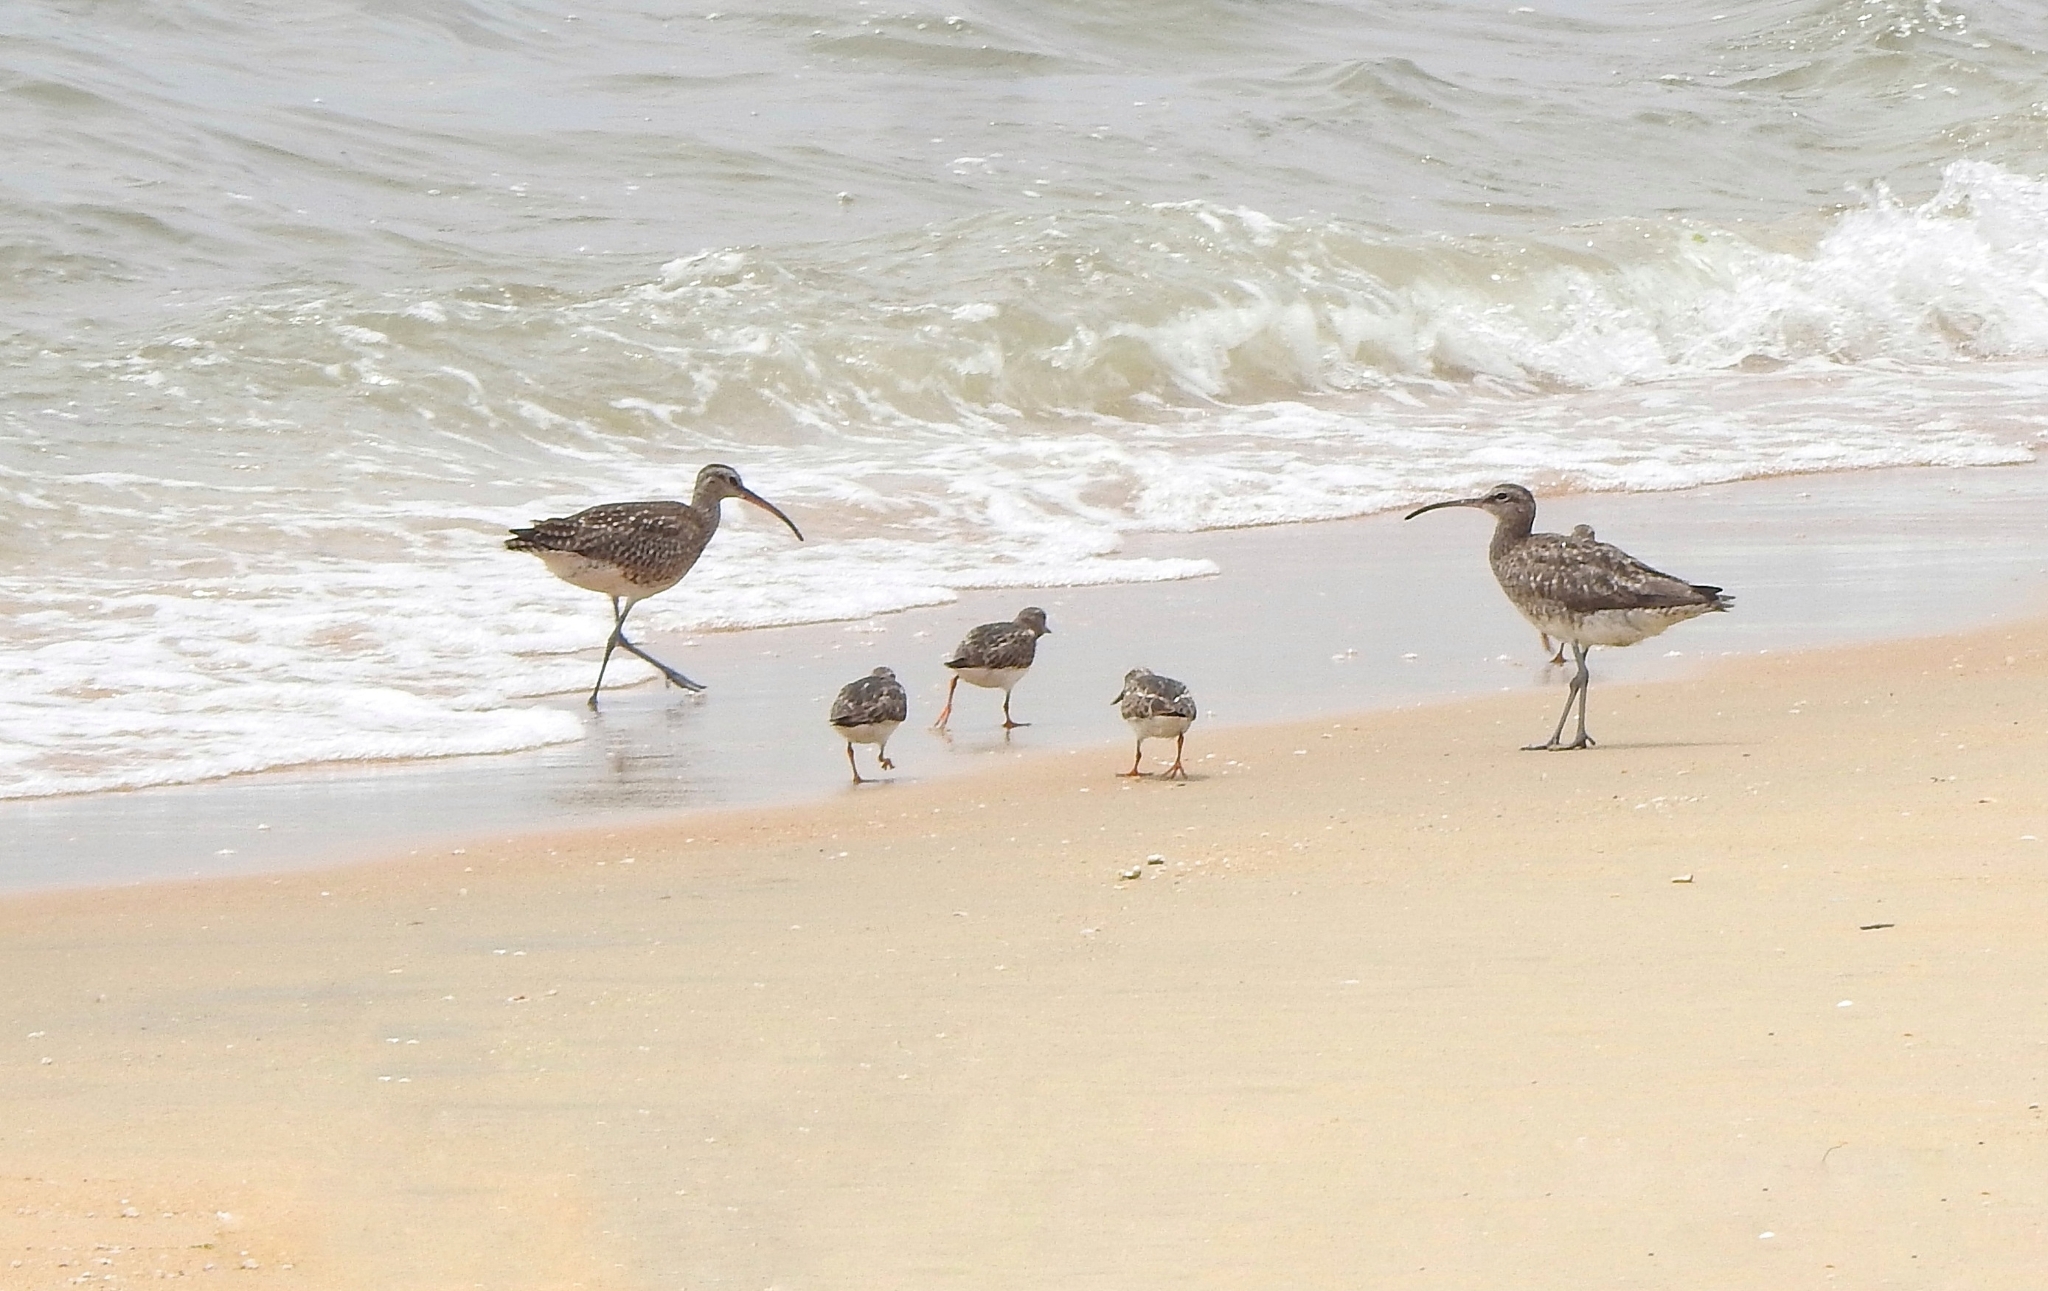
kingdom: Animalia
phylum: Chordata
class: Aves
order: Charadriiformes
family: Scolopacidae
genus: Numenius
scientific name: Numenius phaeopus
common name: Whimbrel
